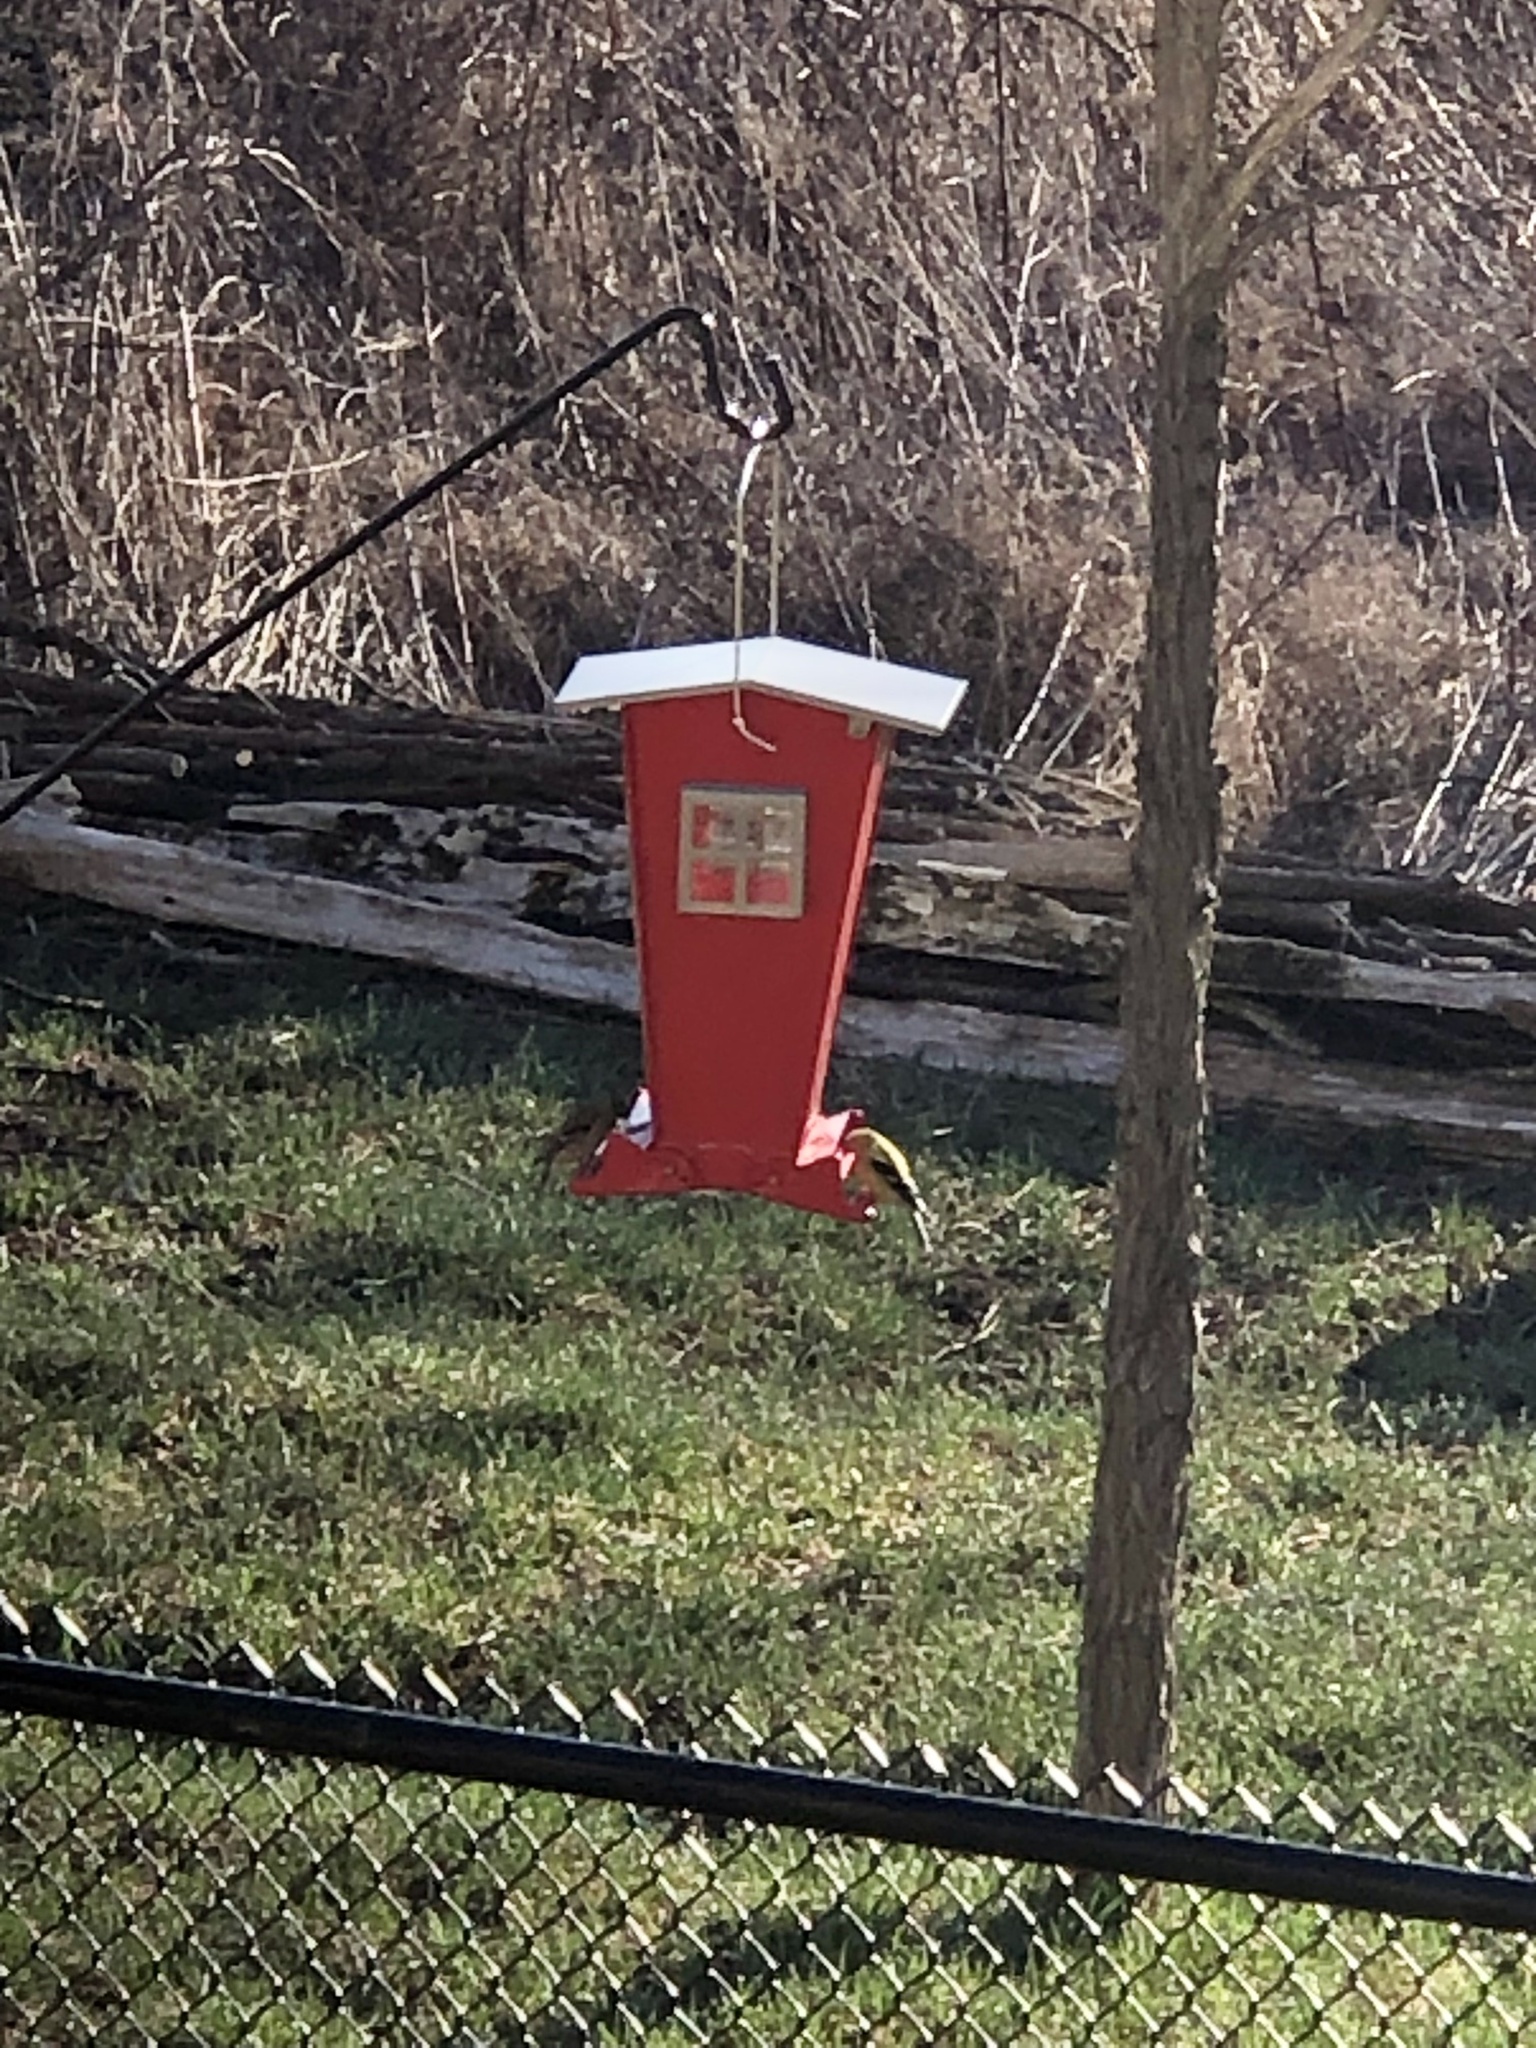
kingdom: Animalia
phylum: Chordata
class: Aves
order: Passeriformes
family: Fringillidae
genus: Spinus
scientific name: Spinus tristis
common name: American goldfinch
